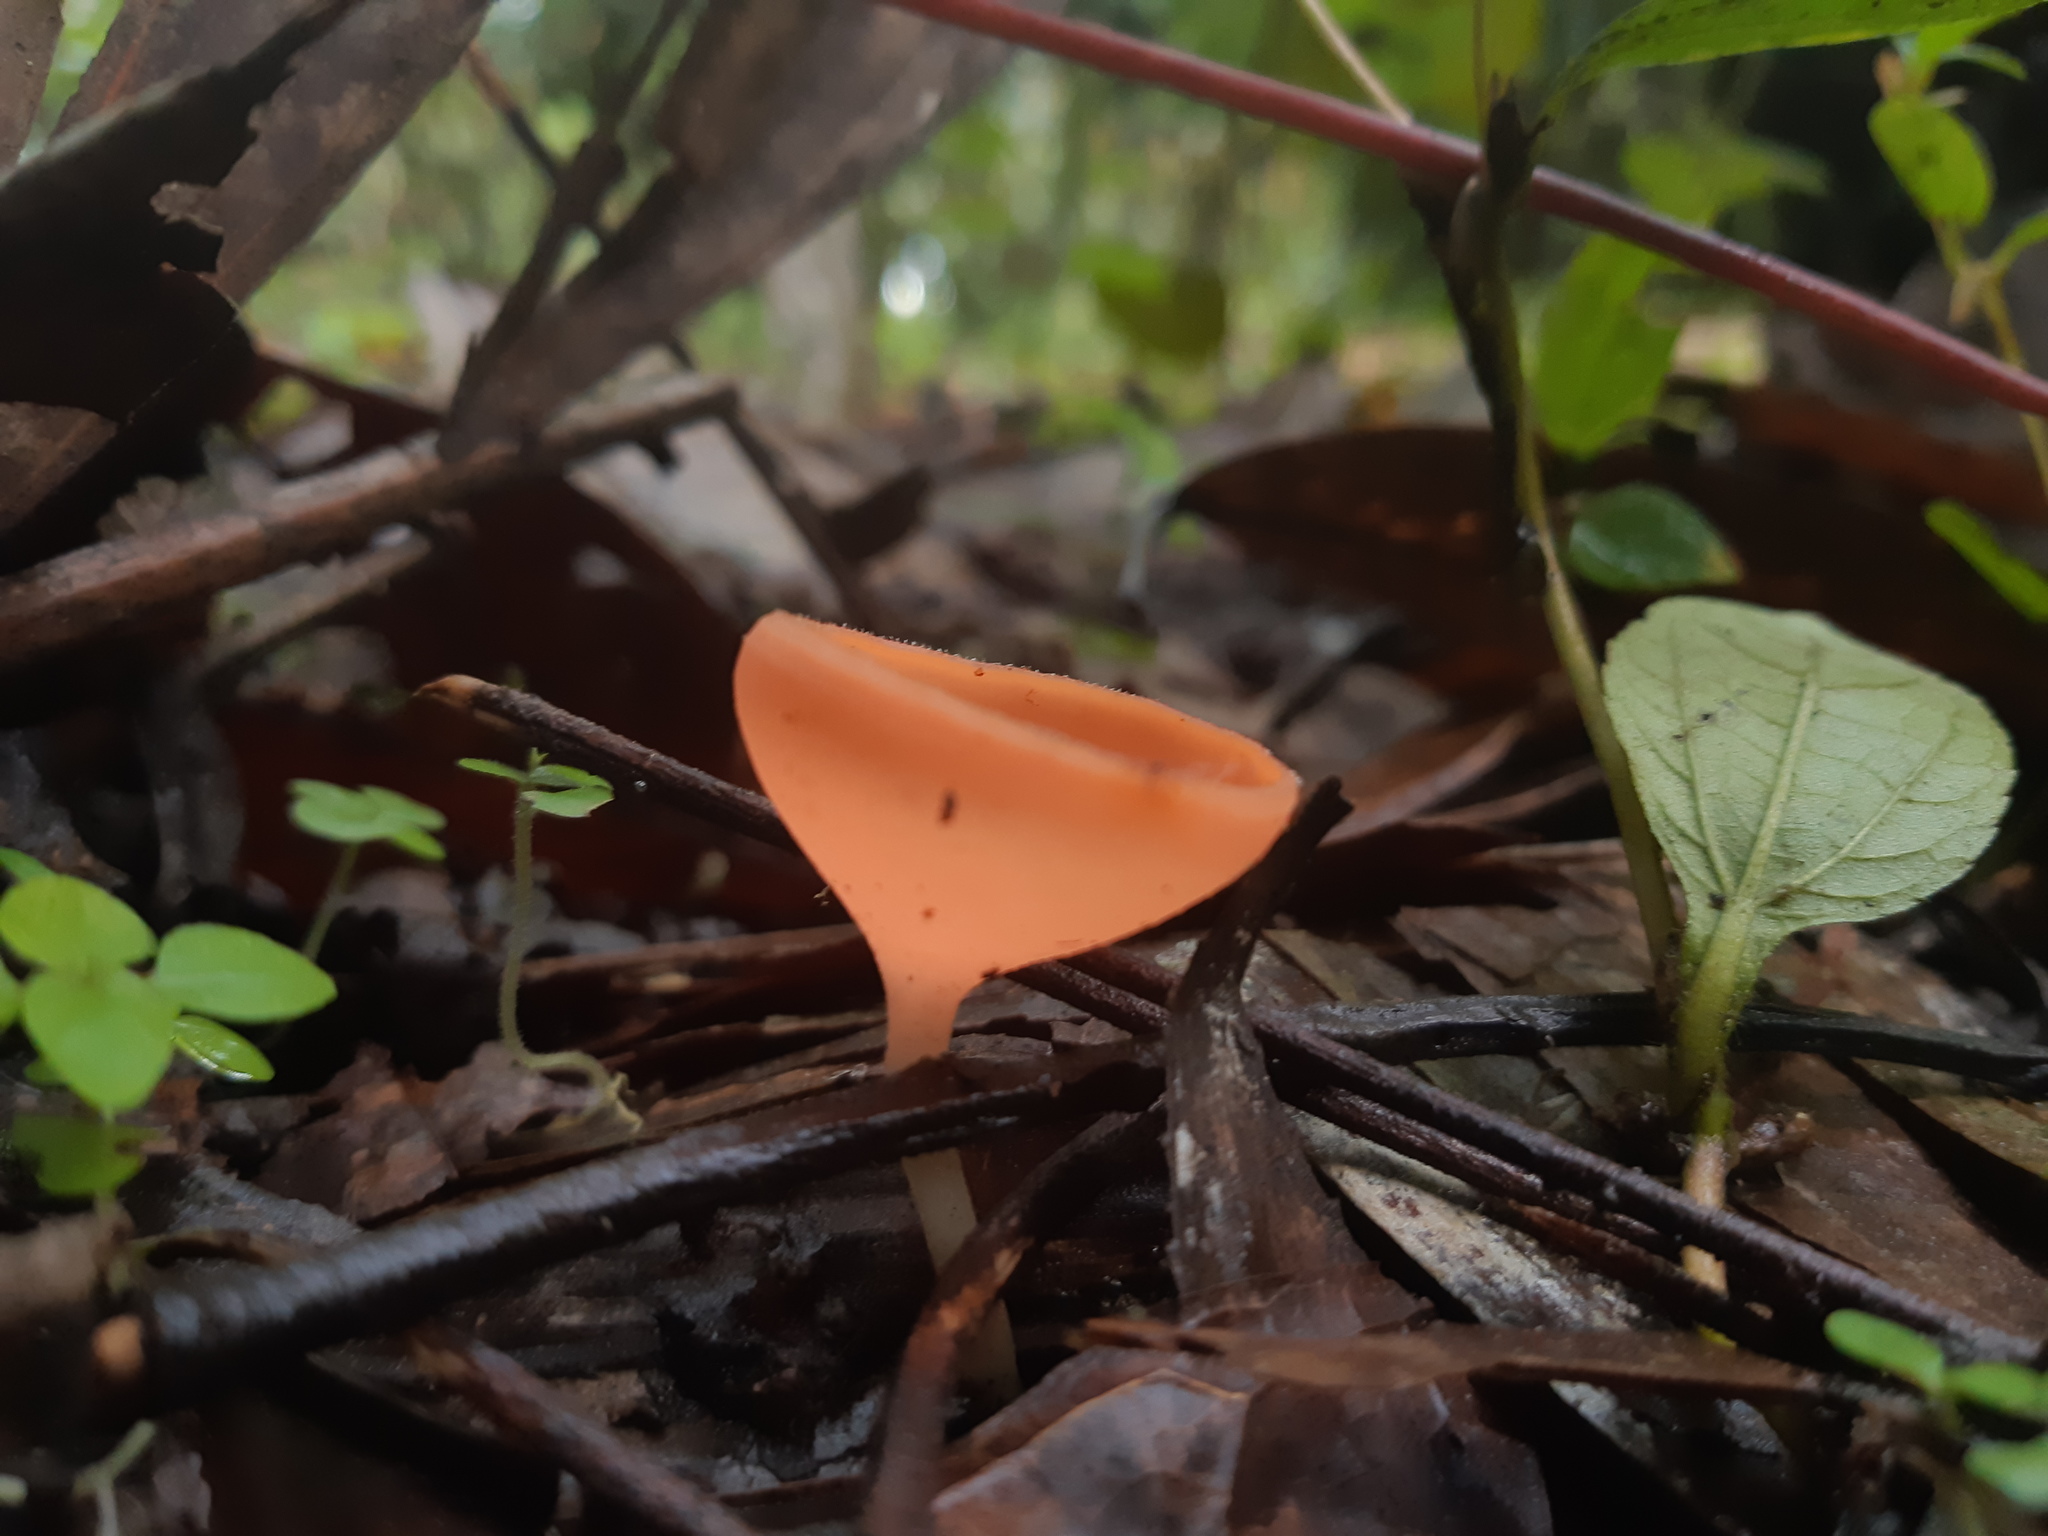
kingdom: Fungi
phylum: Ascomycota
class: Pezizomycetes
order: Pezizales
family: Sarcoscyphaceae
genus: Cookeina
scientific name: Cookeina speciosa
